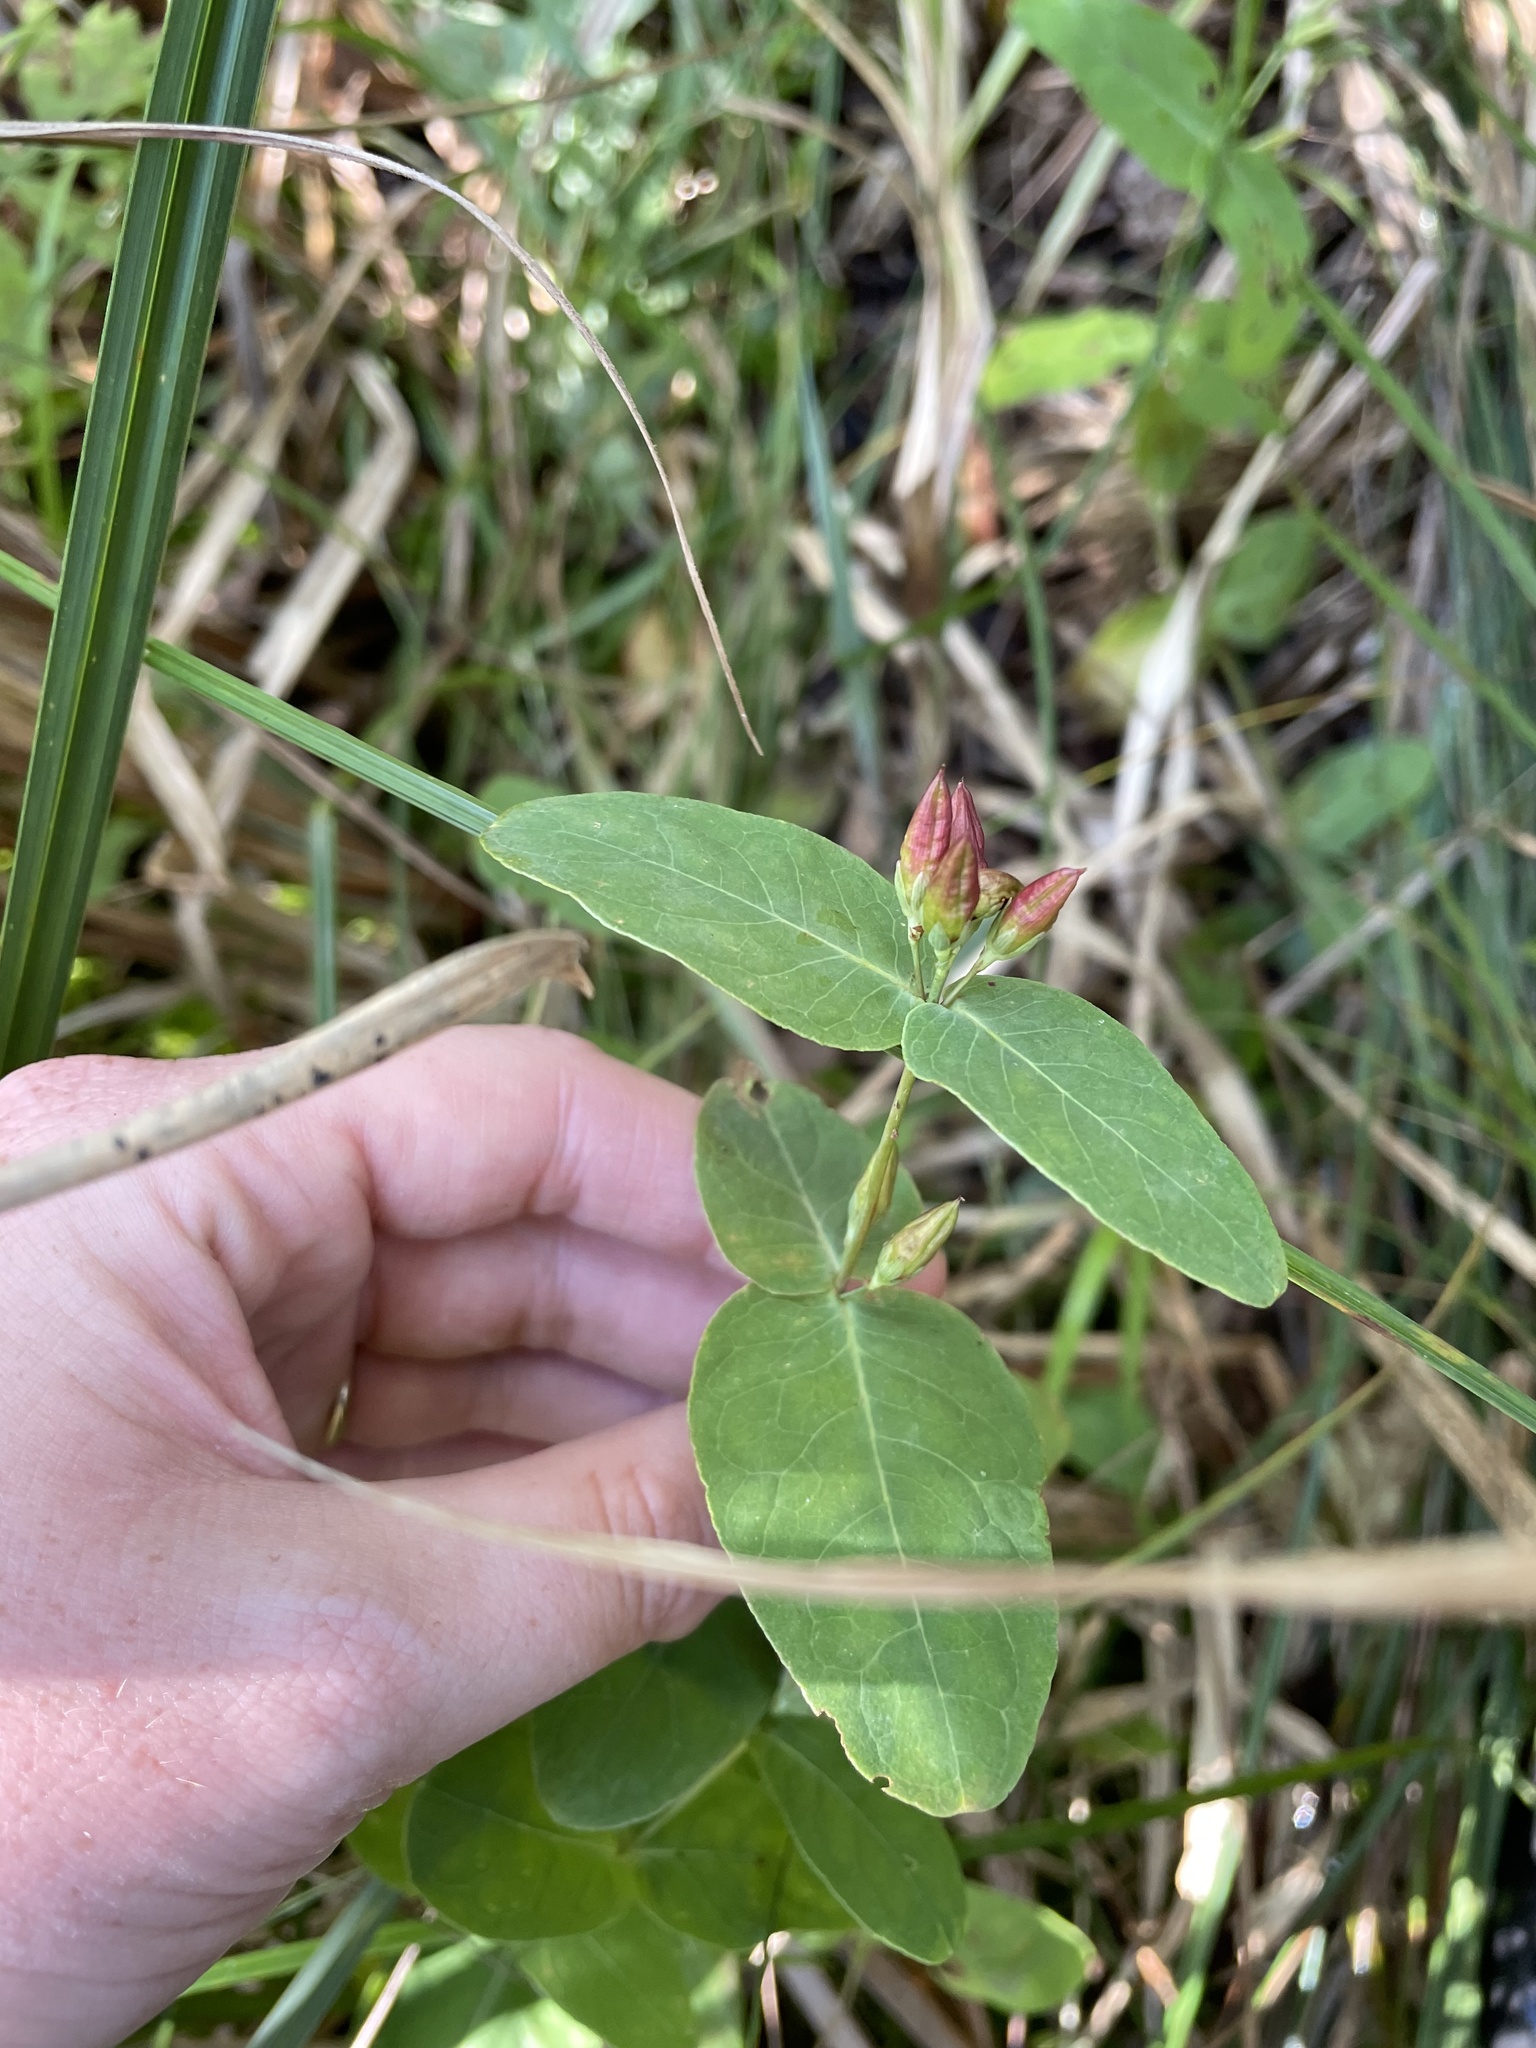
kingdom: Plantae
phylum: Tracheophyta
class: Magnoliopsida
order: Malpighiales
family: Hypericaceae
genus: Triadenum
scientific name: Triadenum virginicum
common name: Marsh st. john's-wort
